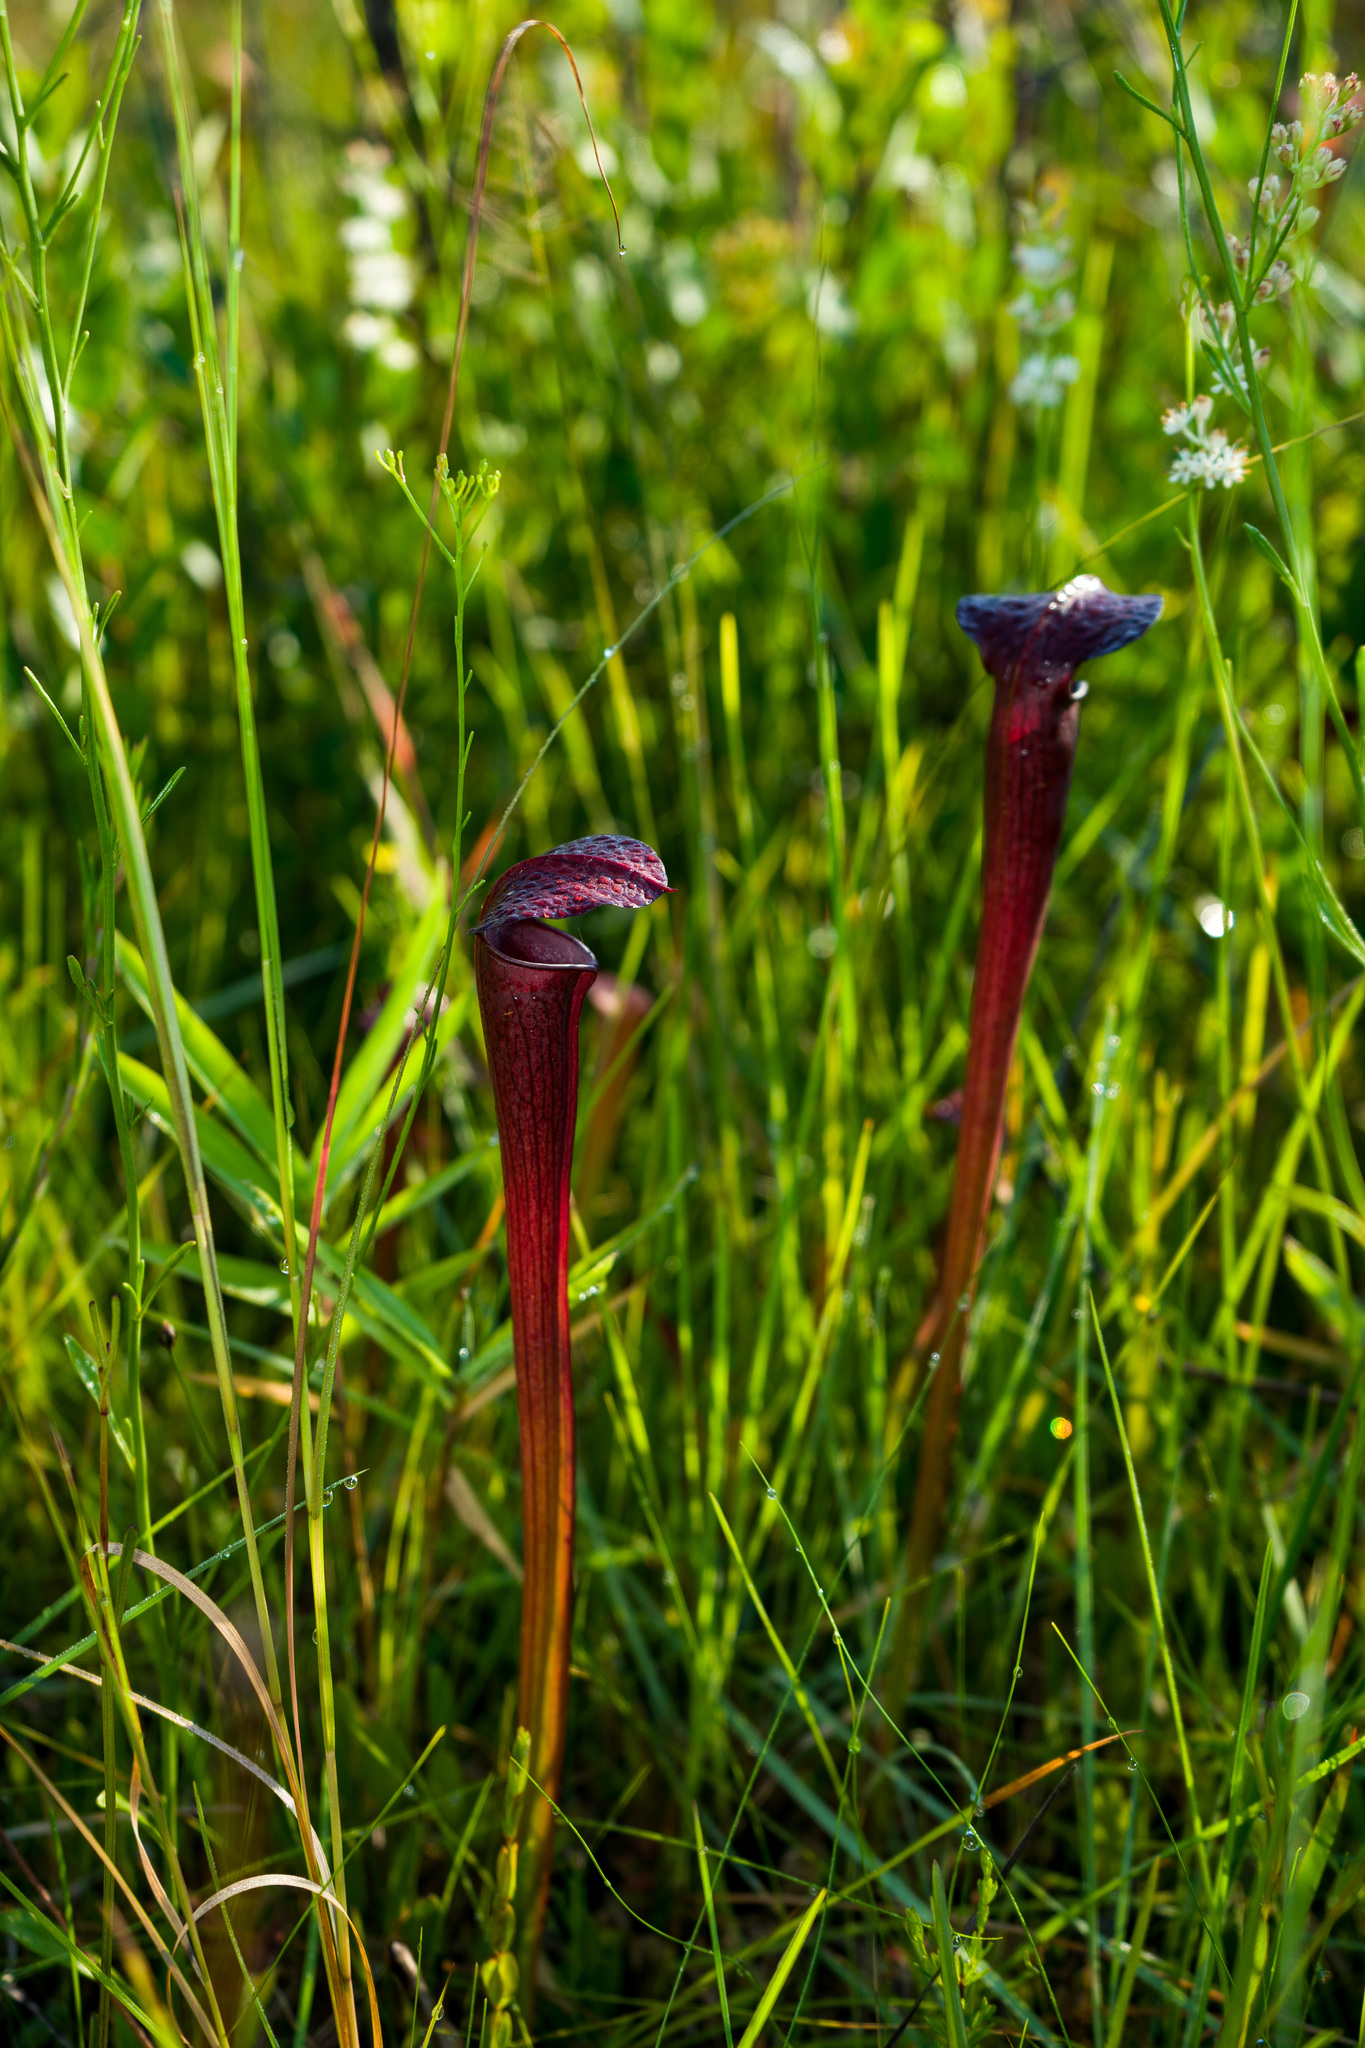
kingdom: Plantae
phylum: Tracheophyta
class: Magnoliopsida
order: Ericales
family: Sarraceniaceae
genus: Sarracenia
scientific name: Sarracenia alata
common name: Yellow trumpets
